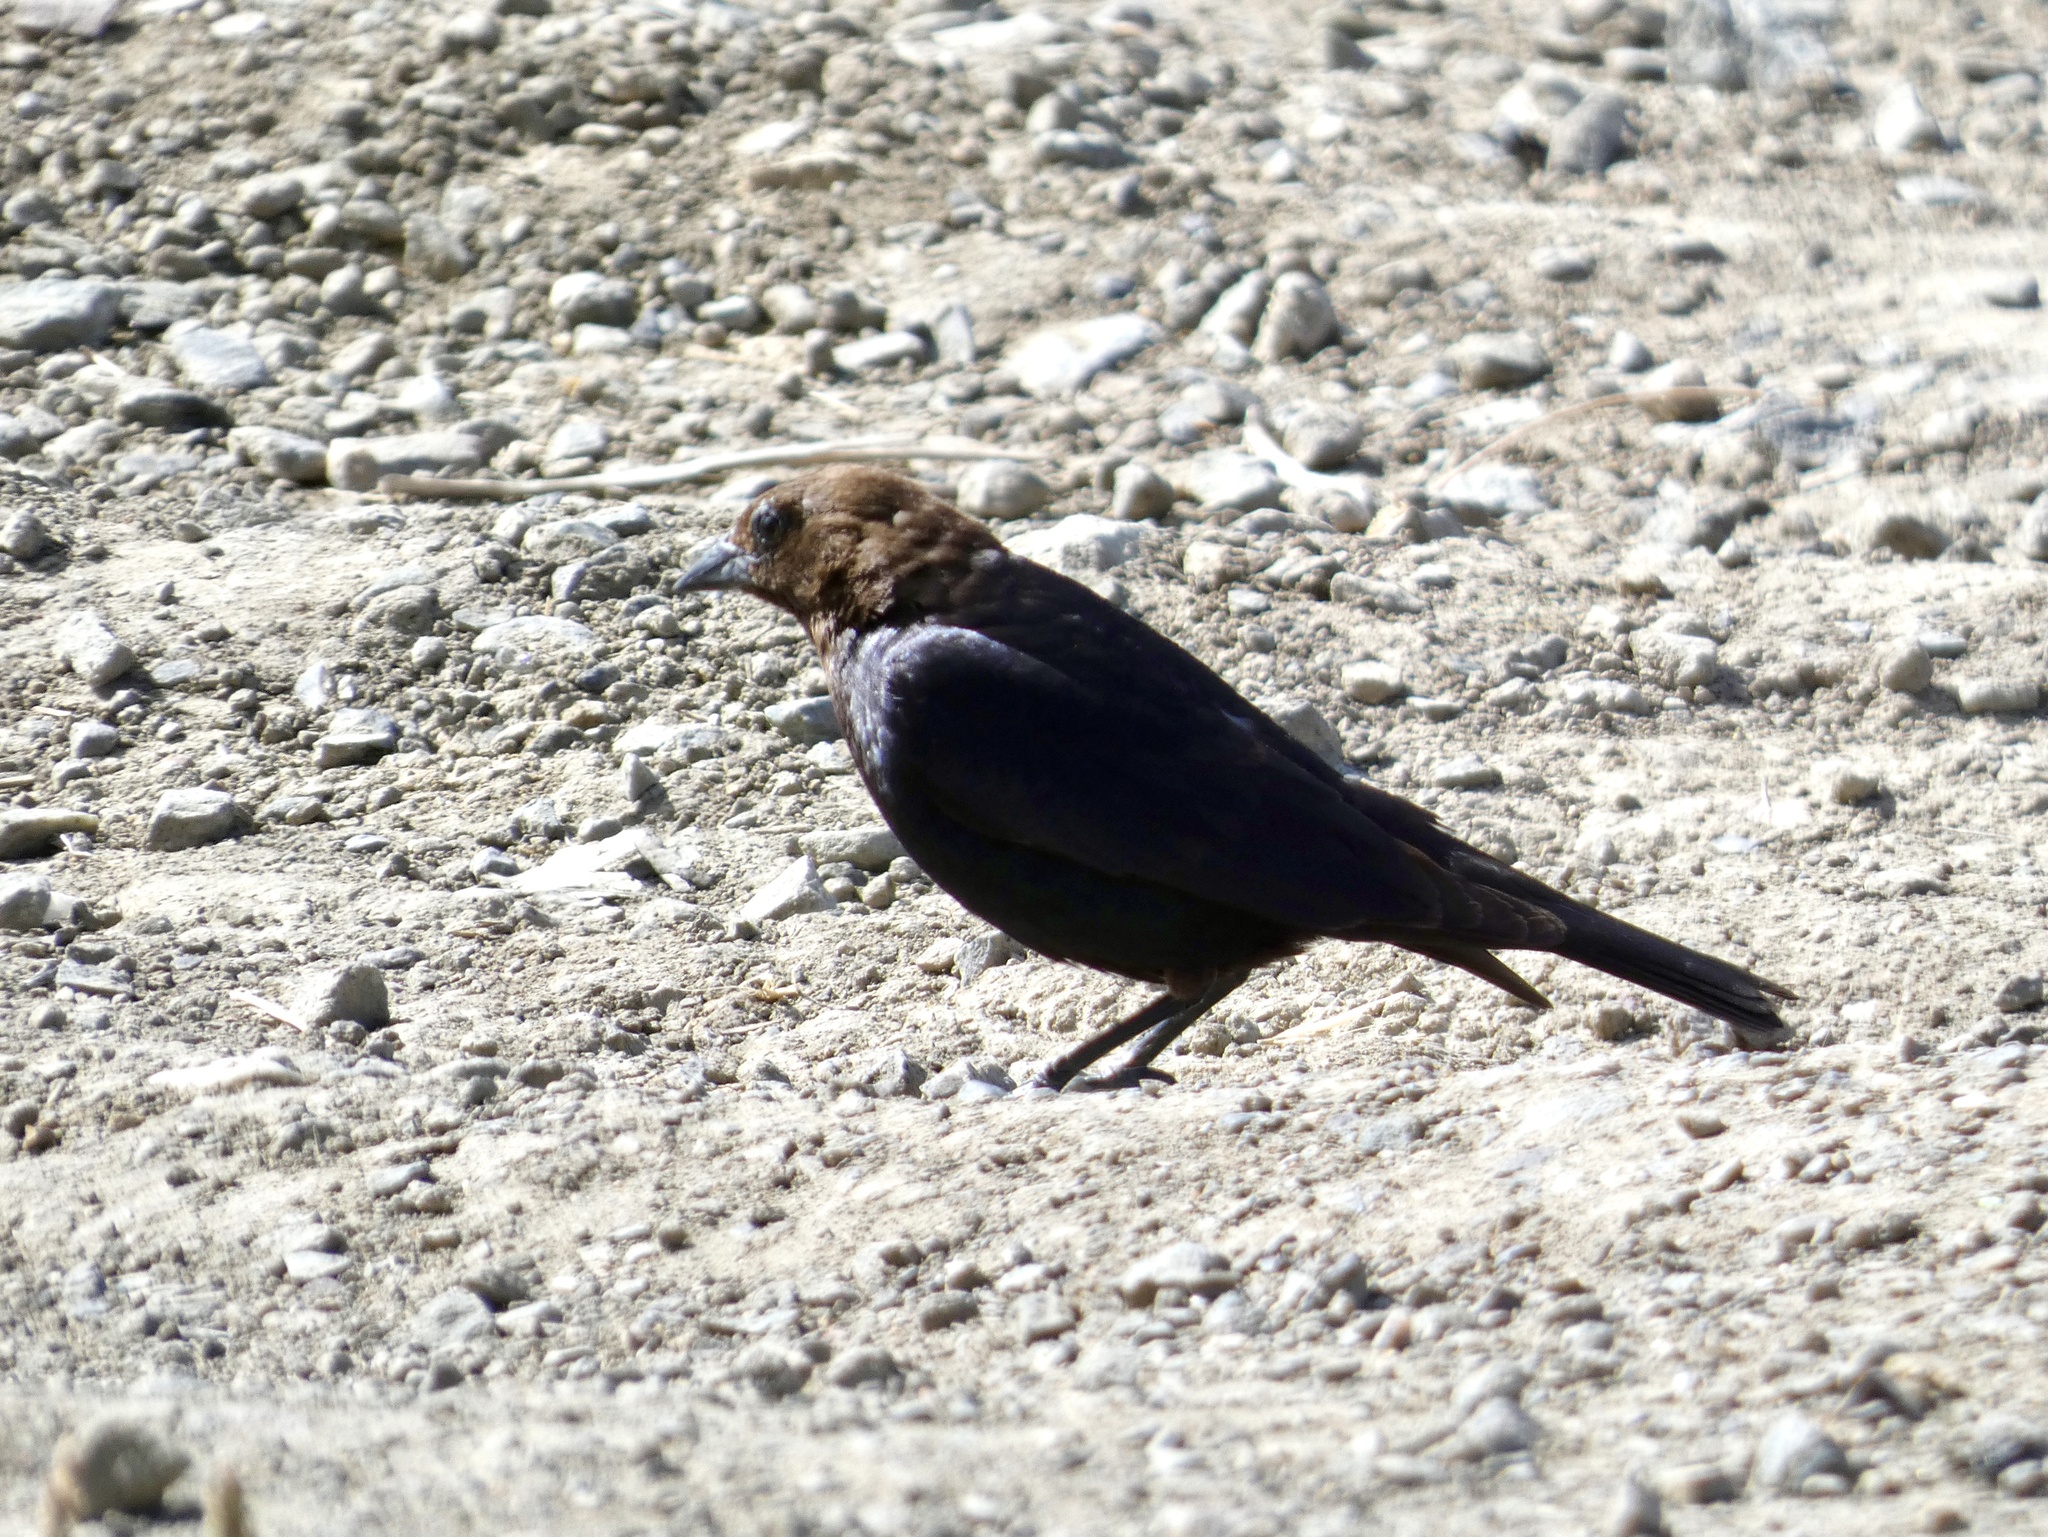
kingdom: Animalia
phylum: Chordata
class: Aves
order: Passeriformes
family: Icteridae
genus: Molothrus
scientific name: Molothrus ater
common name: Brown-headed cowbird
